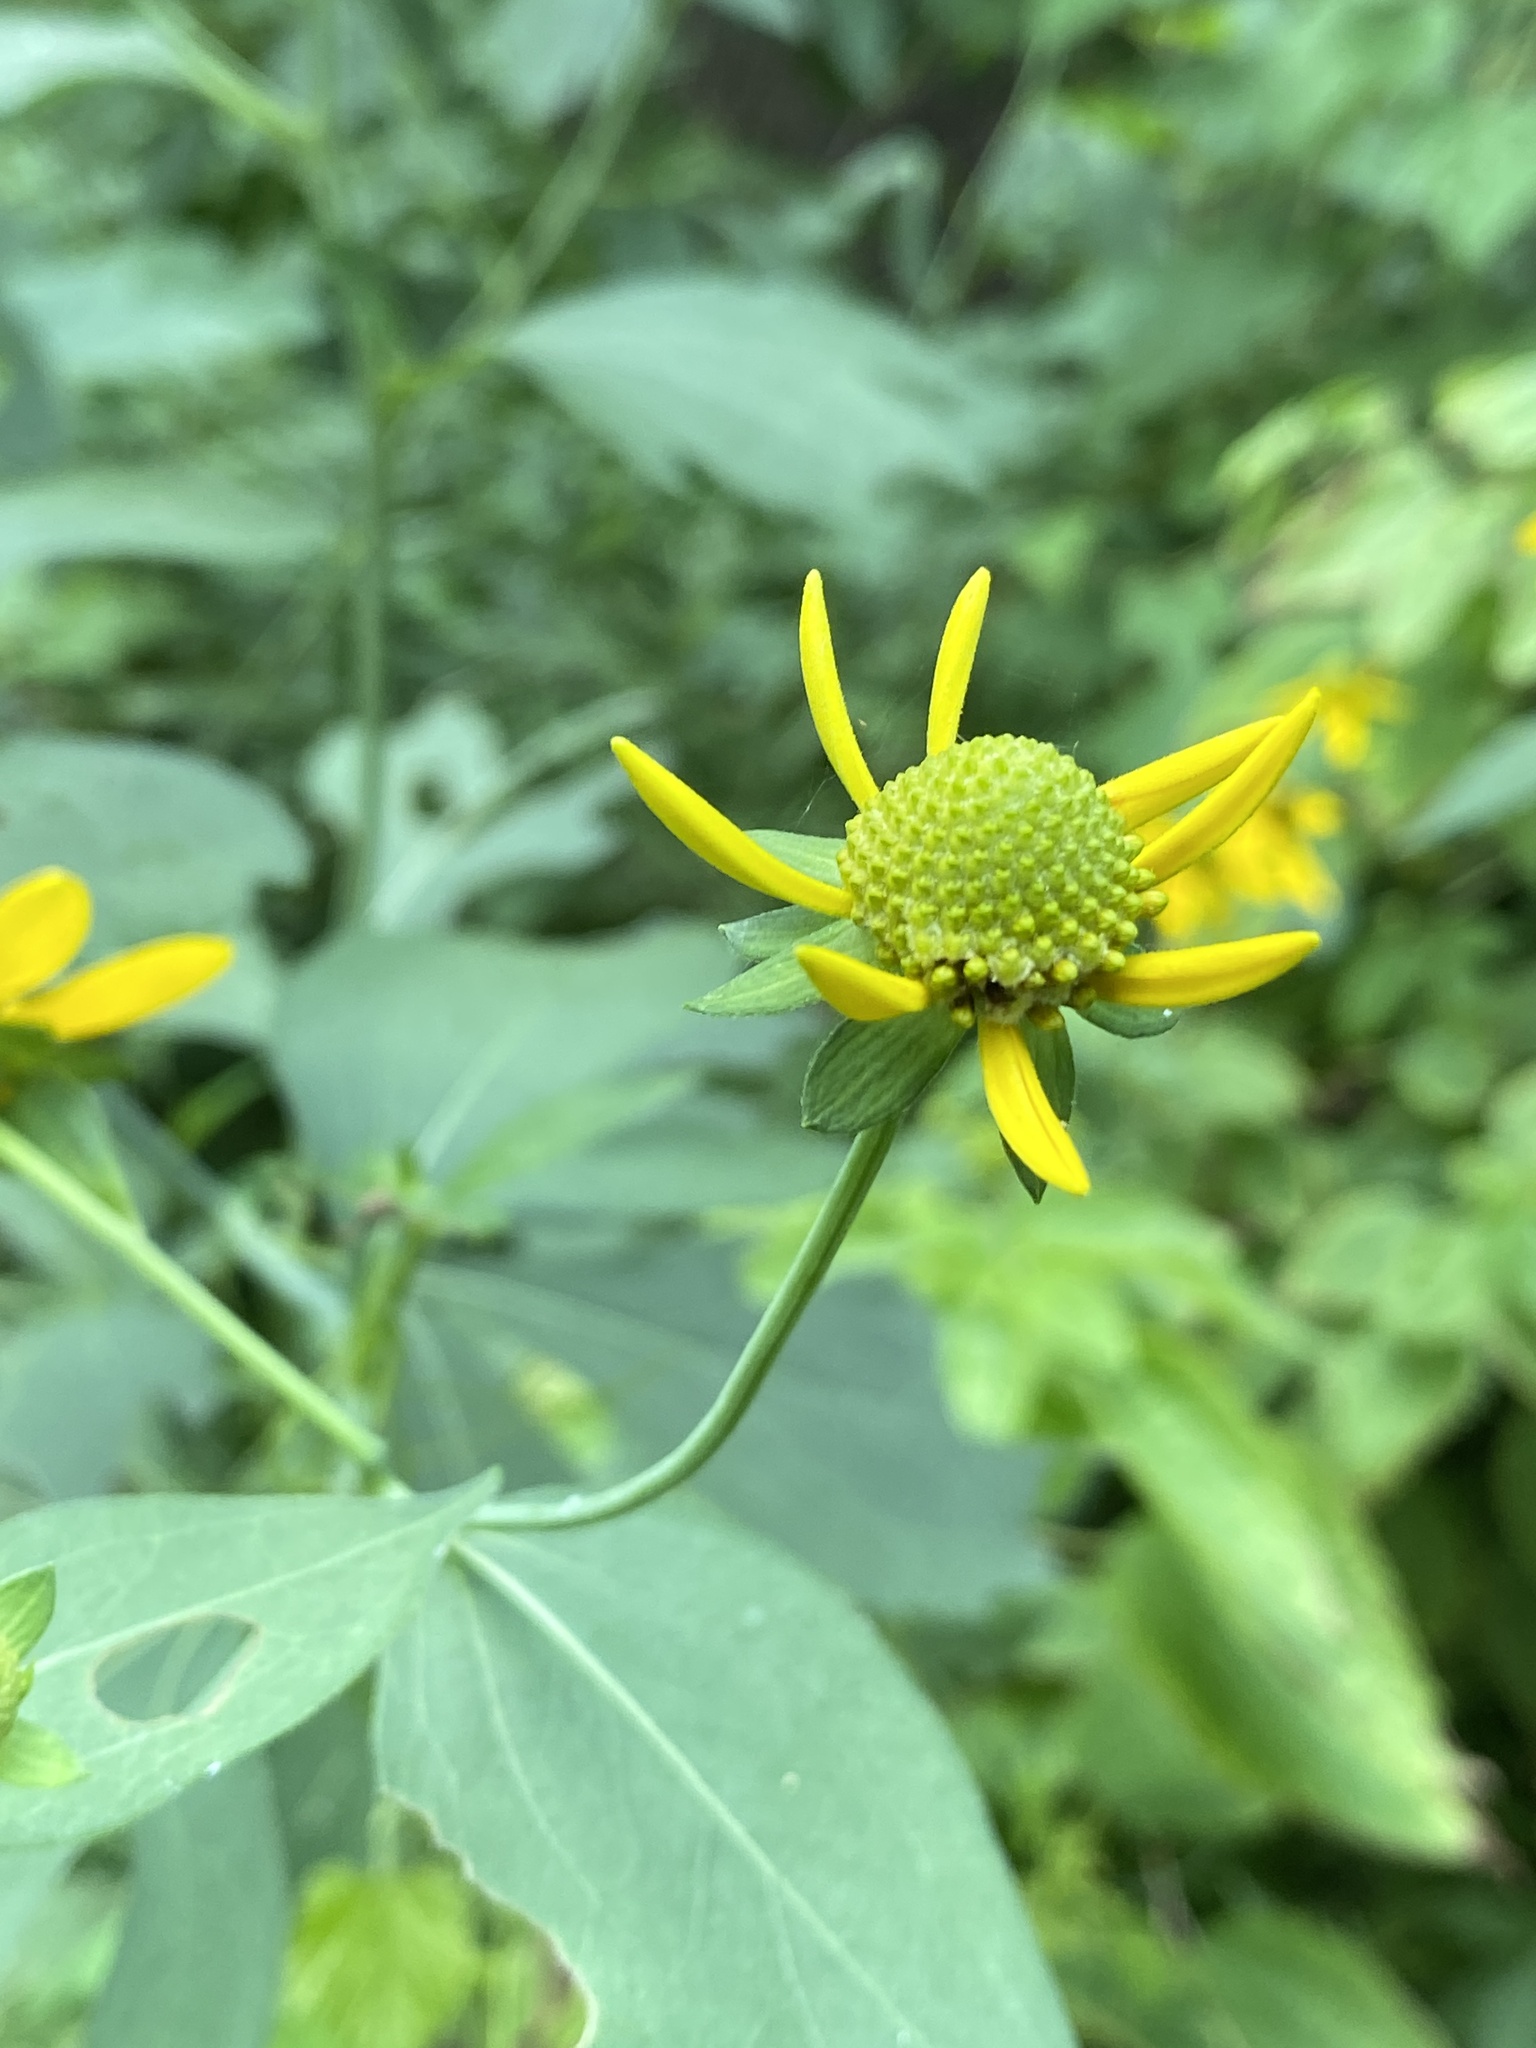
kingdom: Plantae
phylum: Tracheophyta
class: Magnoliopsida
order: Asterales
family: Asteraceae
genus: Rudbeckia
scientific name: Rudbeckia laciniata
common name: Coneflower
